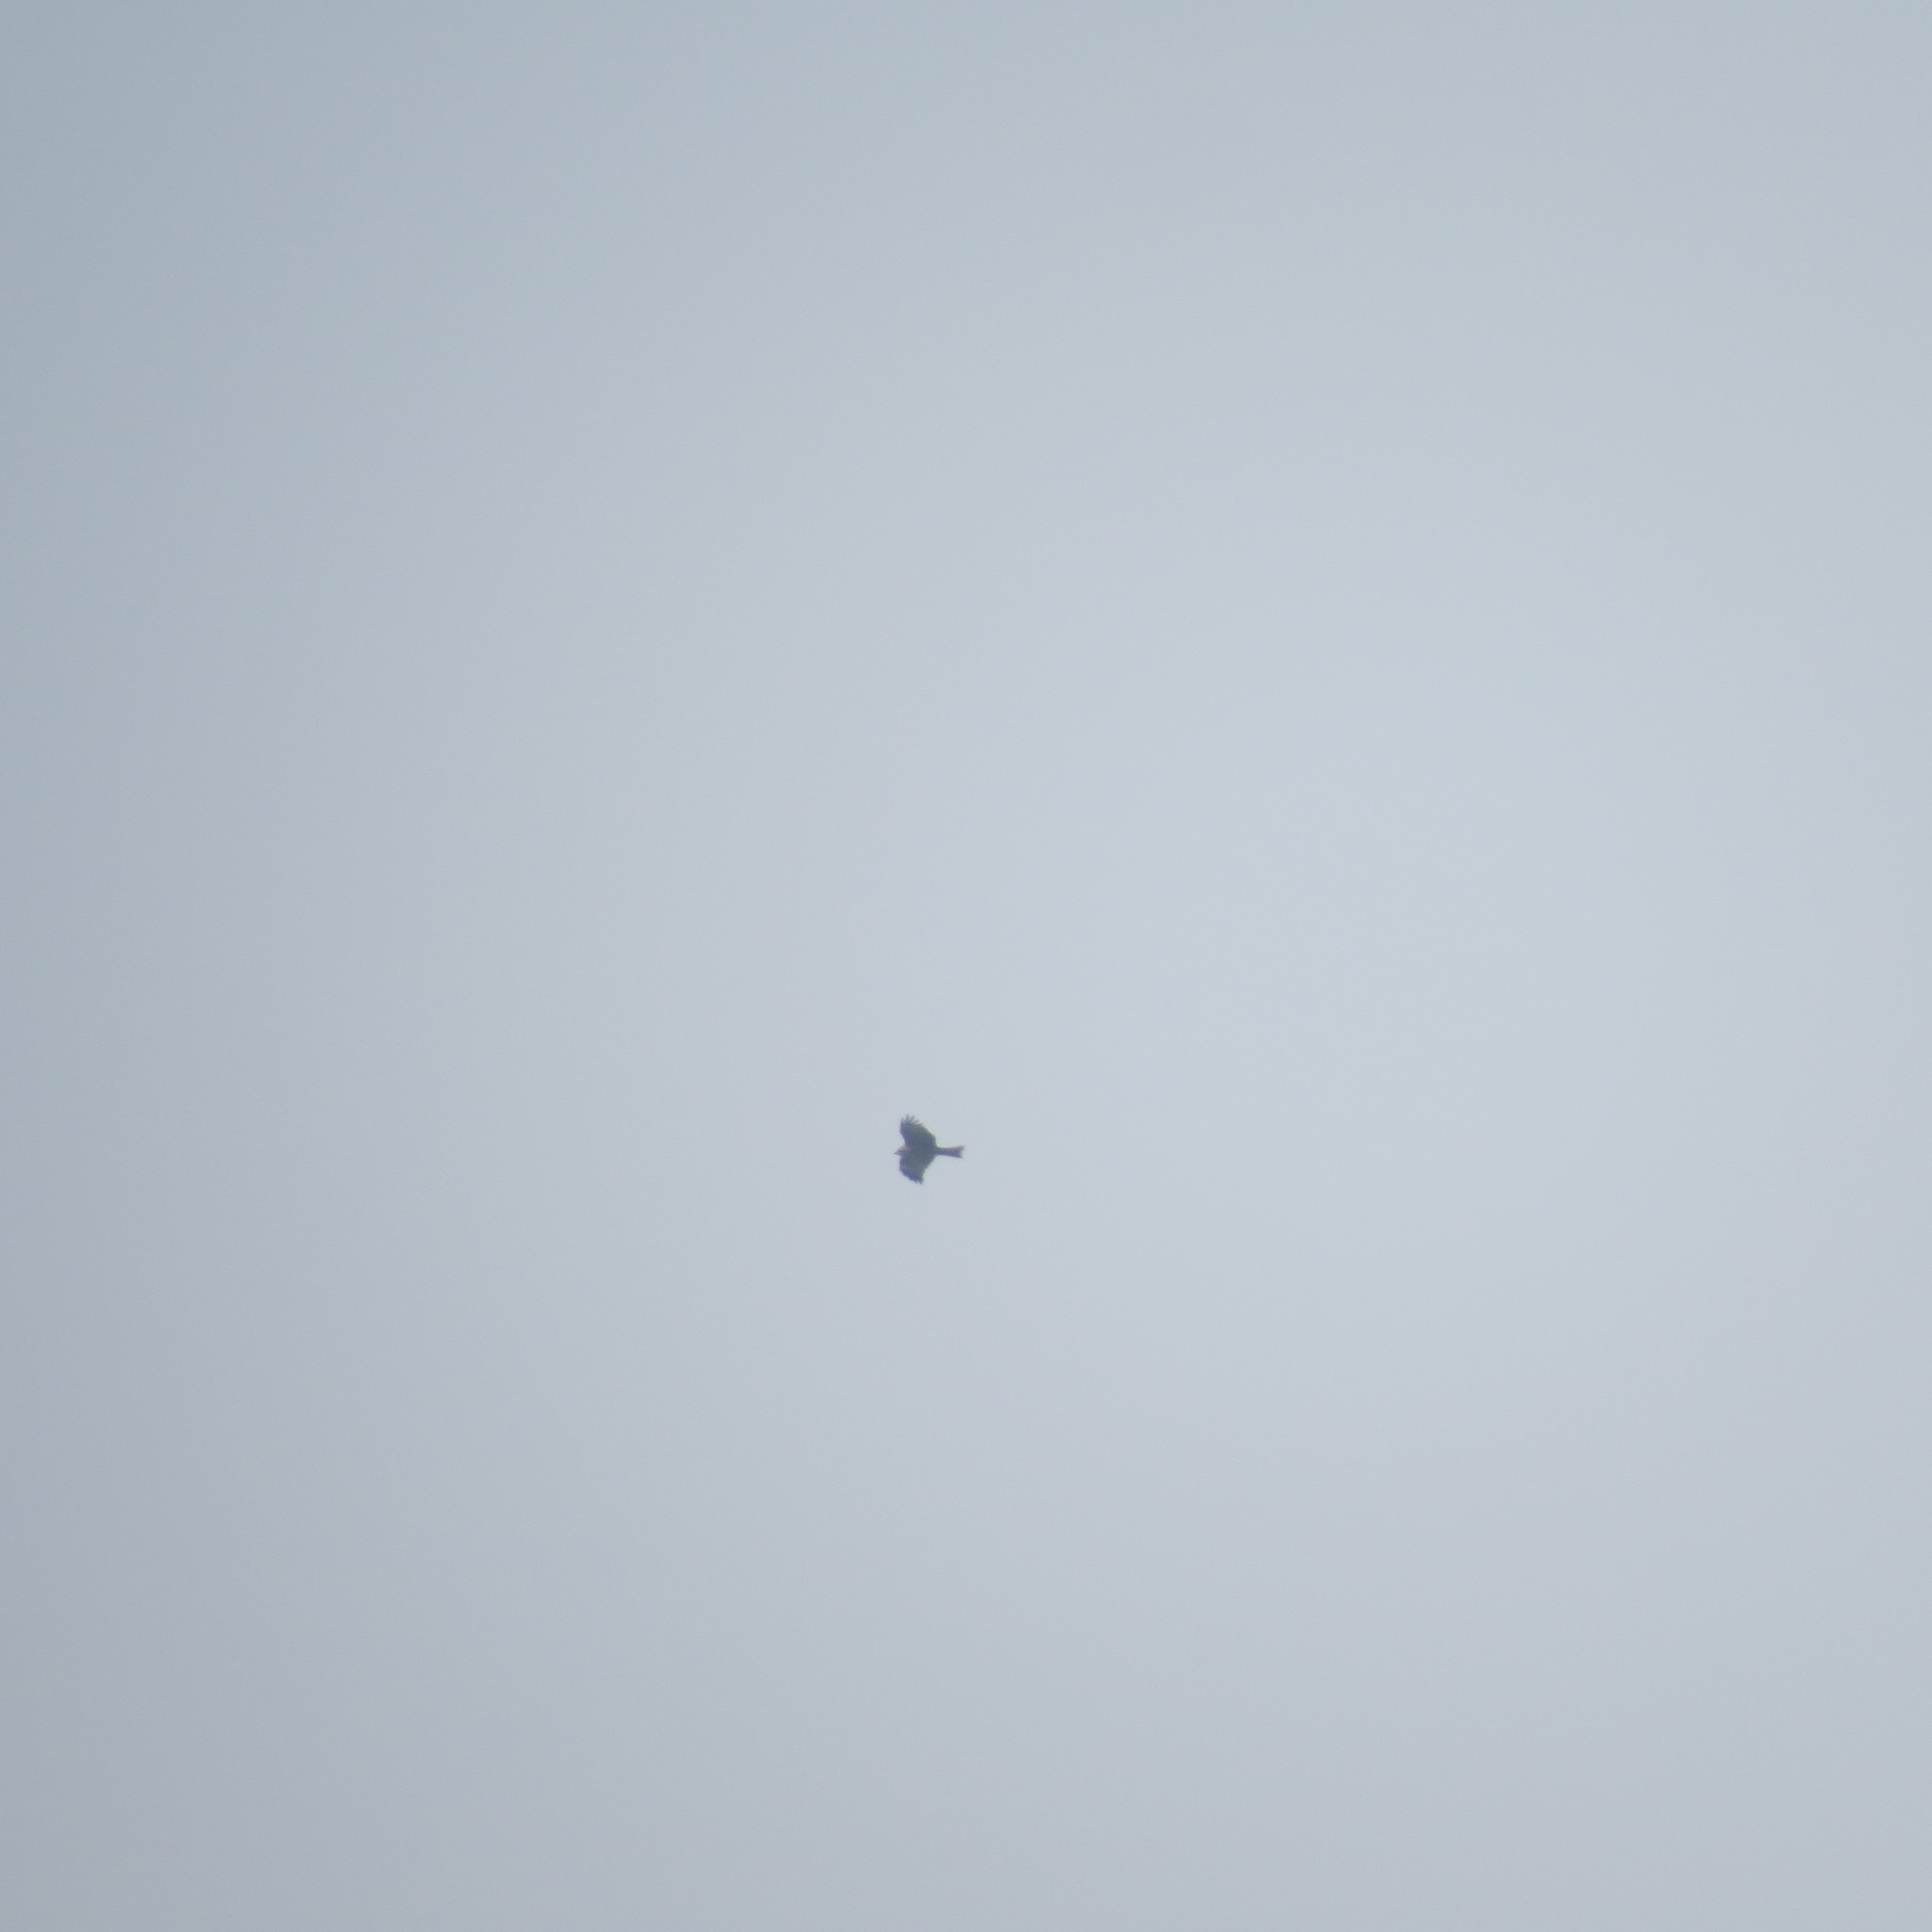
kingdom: Animalia
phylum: Chordata
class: Aves
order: Accipitriformes
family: Accipitridae
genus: Milvus
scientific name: Milvus migrans
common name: Black kite
